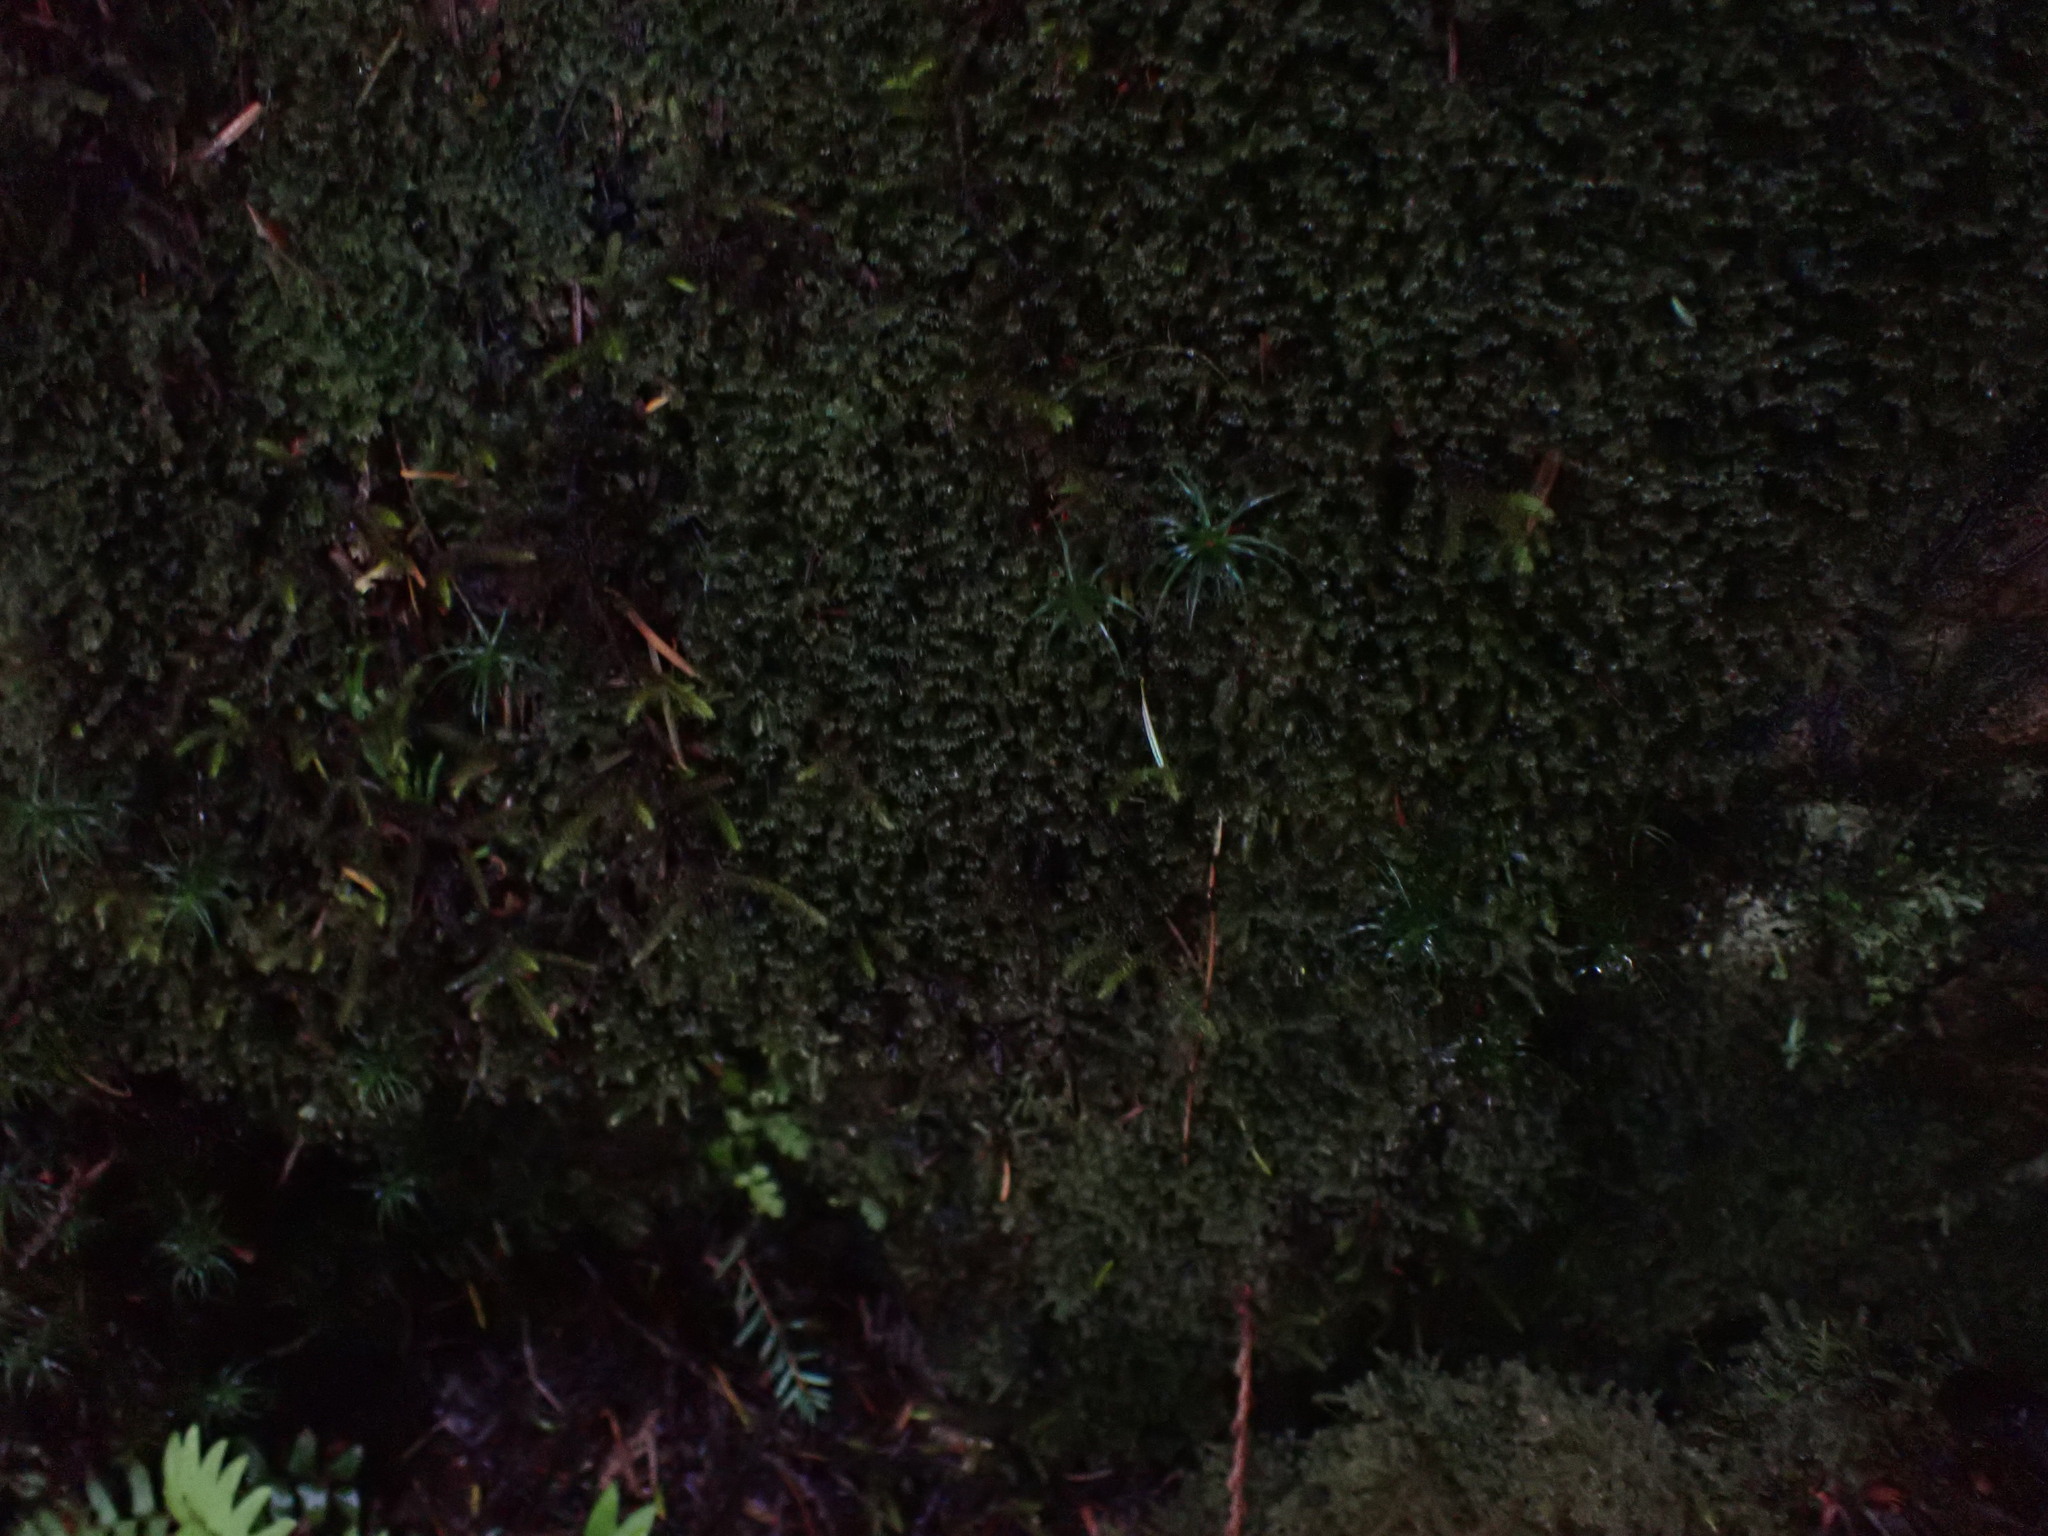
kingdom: Plantae
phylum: Marchantiophyta
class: Jungermanniopsida
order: Jungermanniales
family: Scapaniaceae
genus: Diplophyllum
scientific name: Diplophyllum albicans
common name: White earwort
